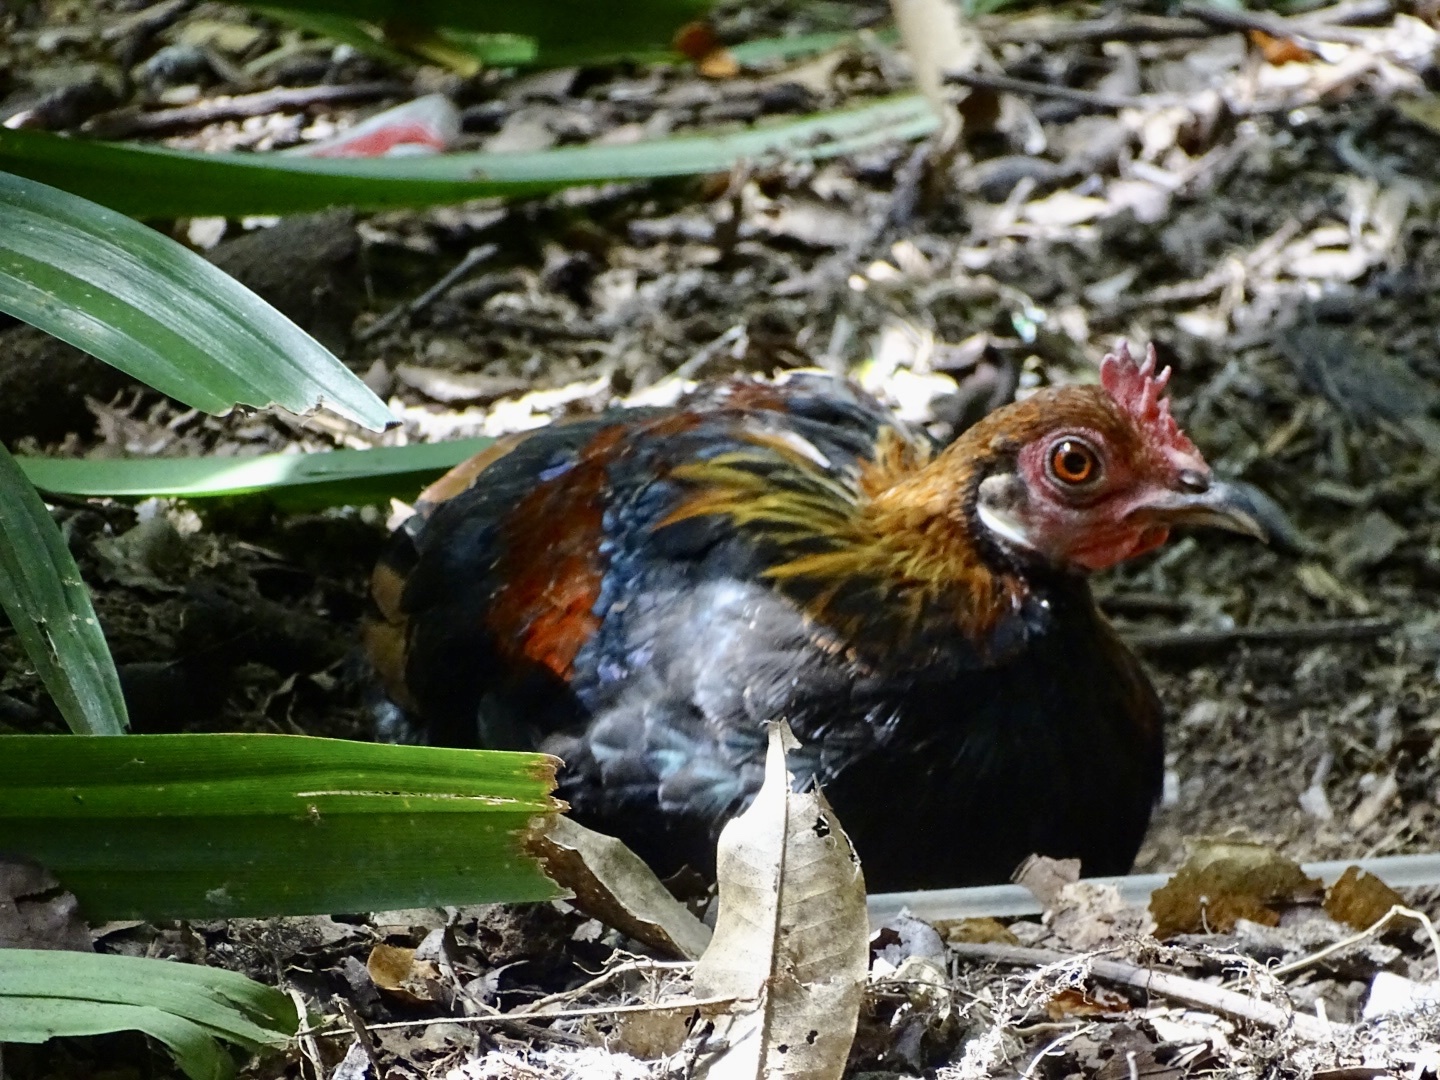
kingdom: Animalia
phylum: Chordata
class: Aves
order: Galliformes
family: Phasianidae
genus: Gallus
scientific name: Gallus gallus
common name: Red junglefowl
